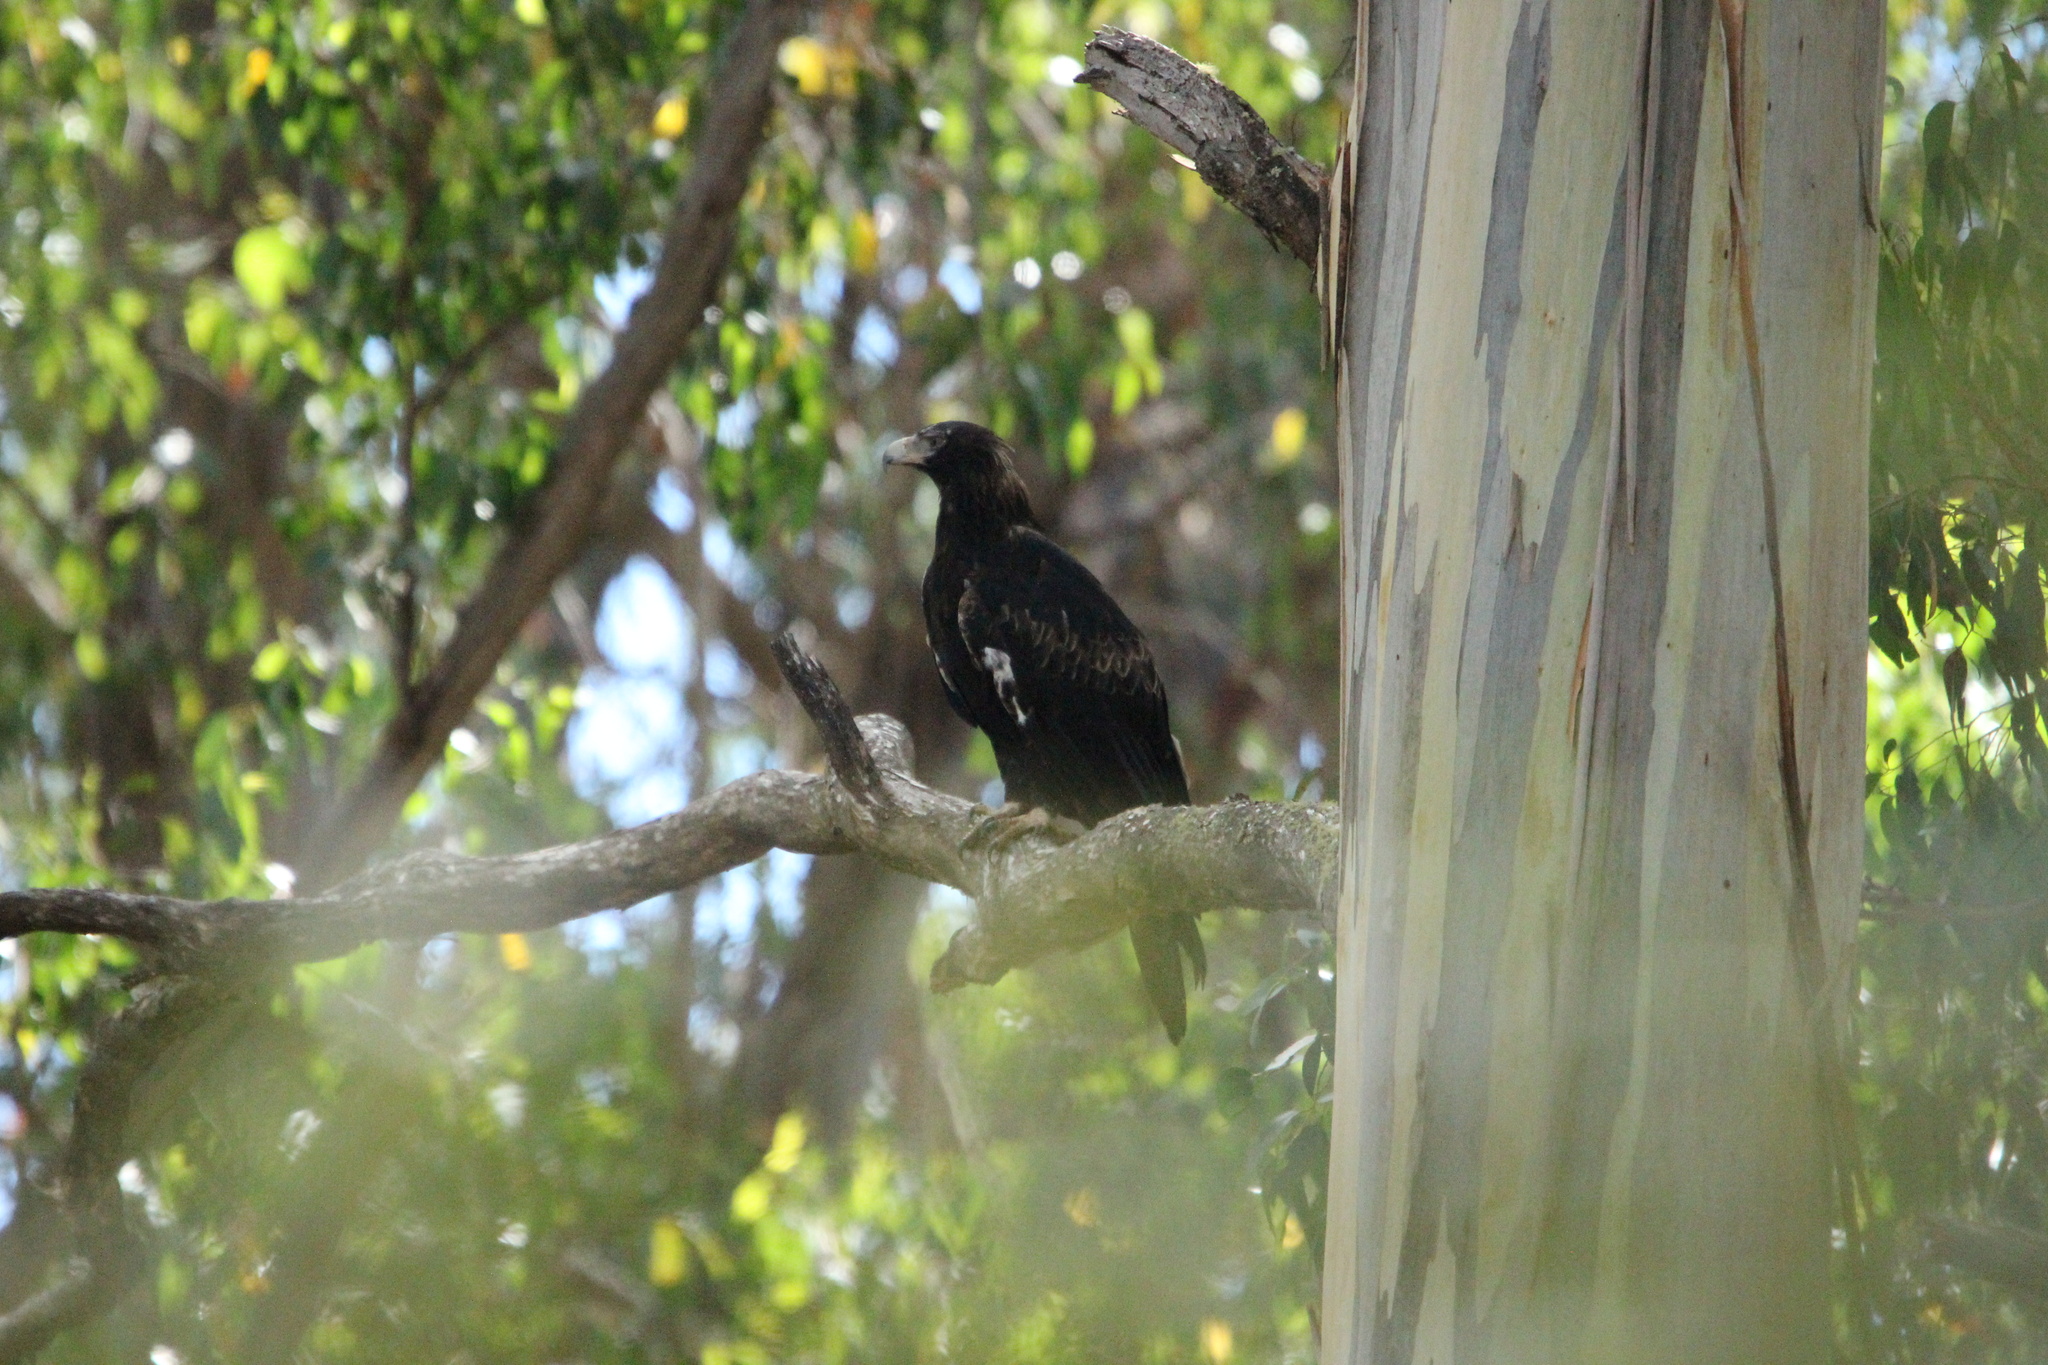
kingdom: Animalia
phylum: Chordata
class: Aves
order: Accipitriformes
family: Accipitridae
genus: Aquila
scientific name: Aquila audax
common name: Wedge-tailed eagle
